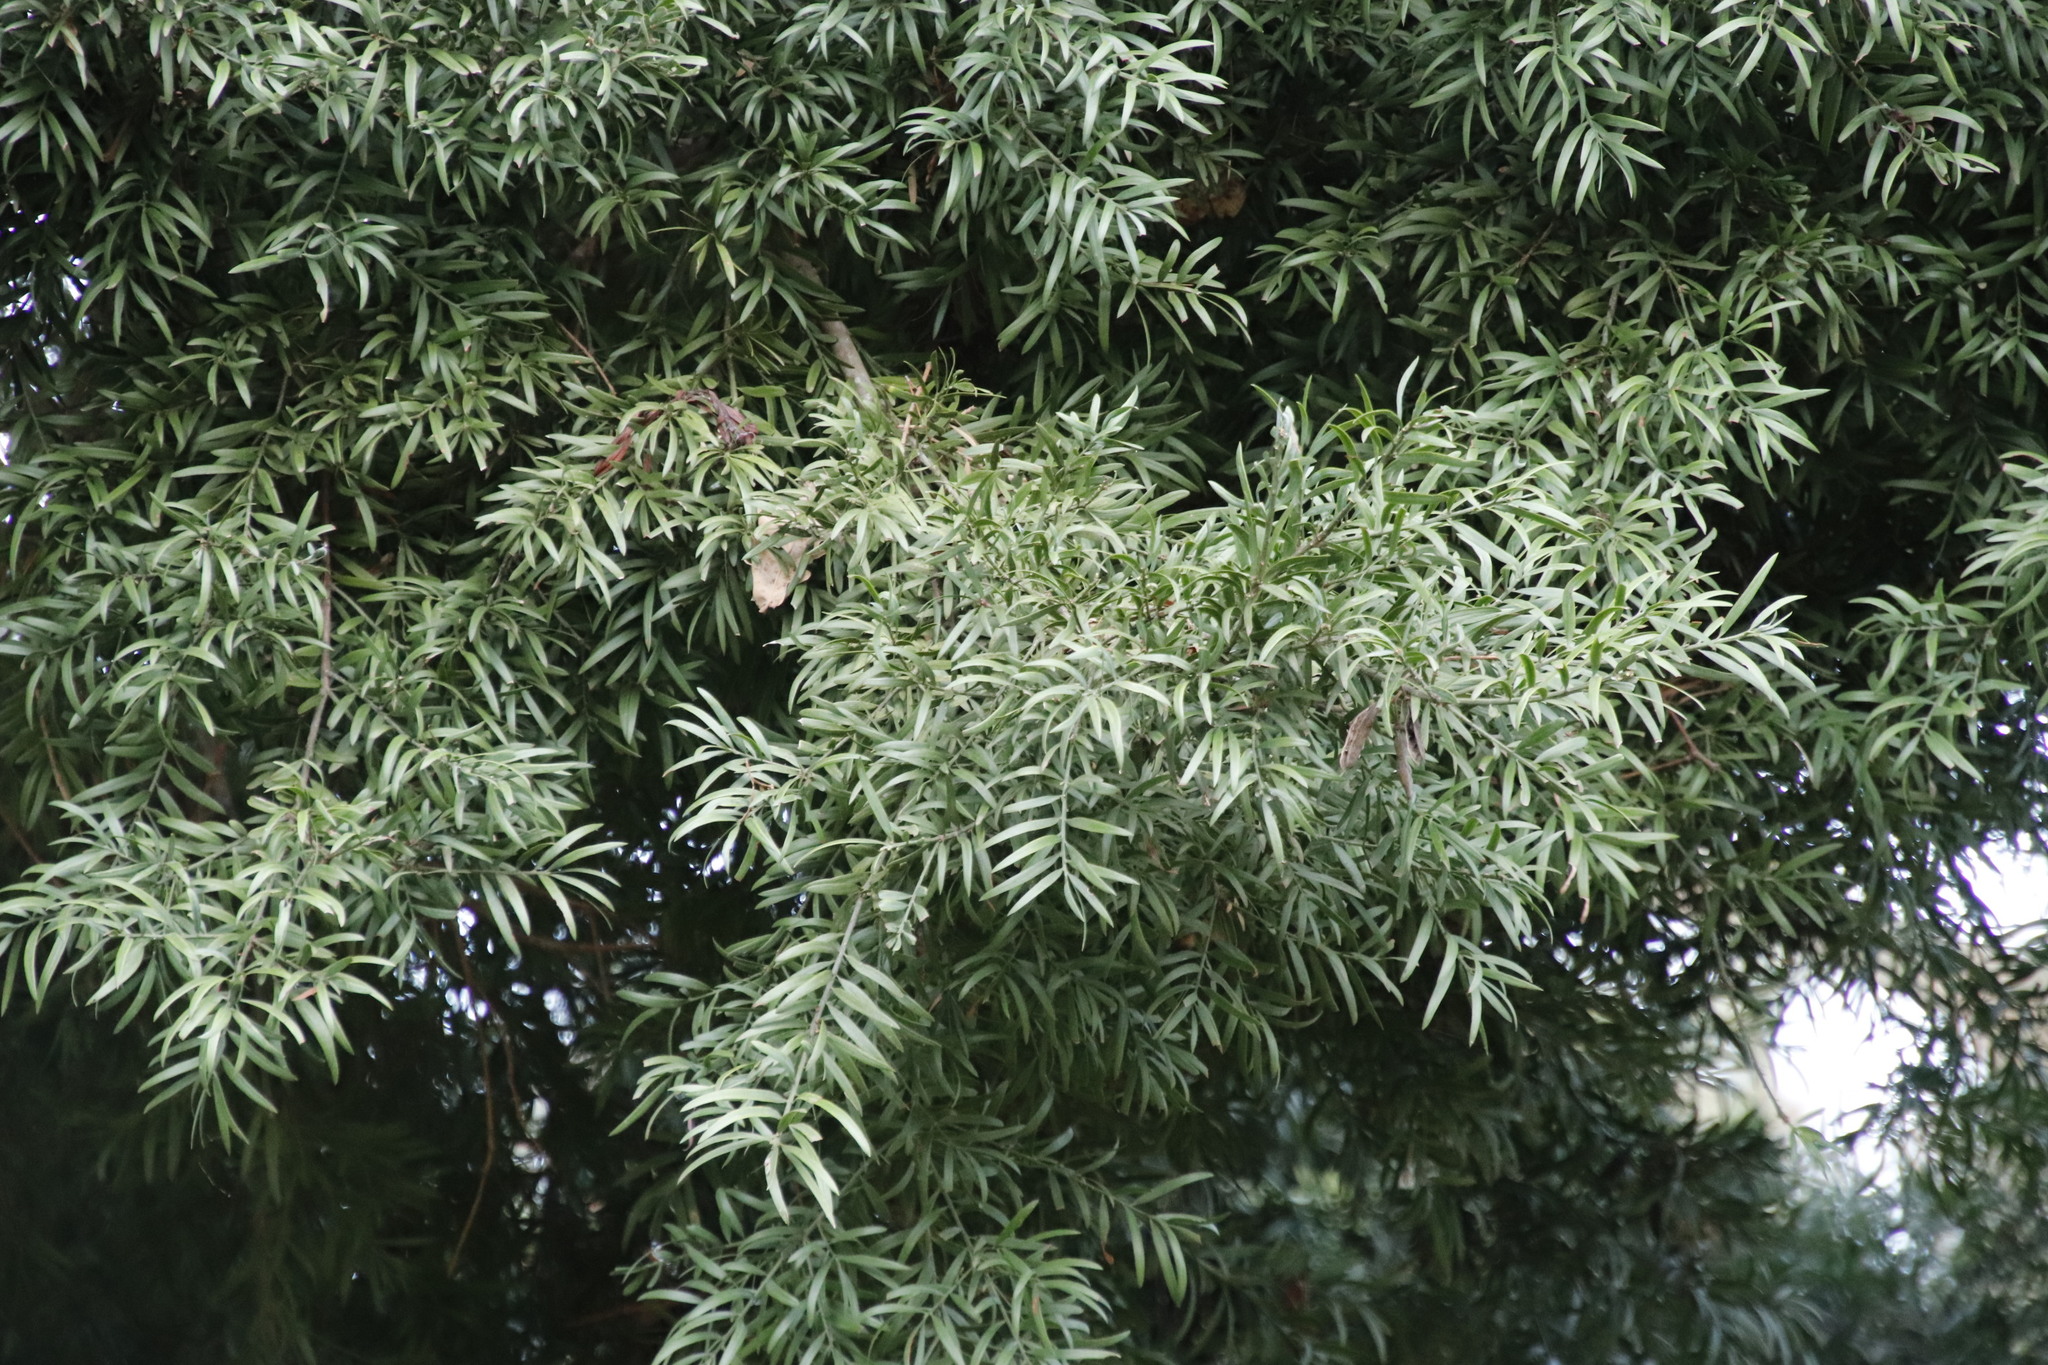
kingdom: Plantae
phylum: Tracheophyta
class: Pinopsida
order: Pinales
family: Podocarpaceae
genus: Afrocarpus
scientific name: Afrocarpus falcatus
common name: Bastard yellowwood
